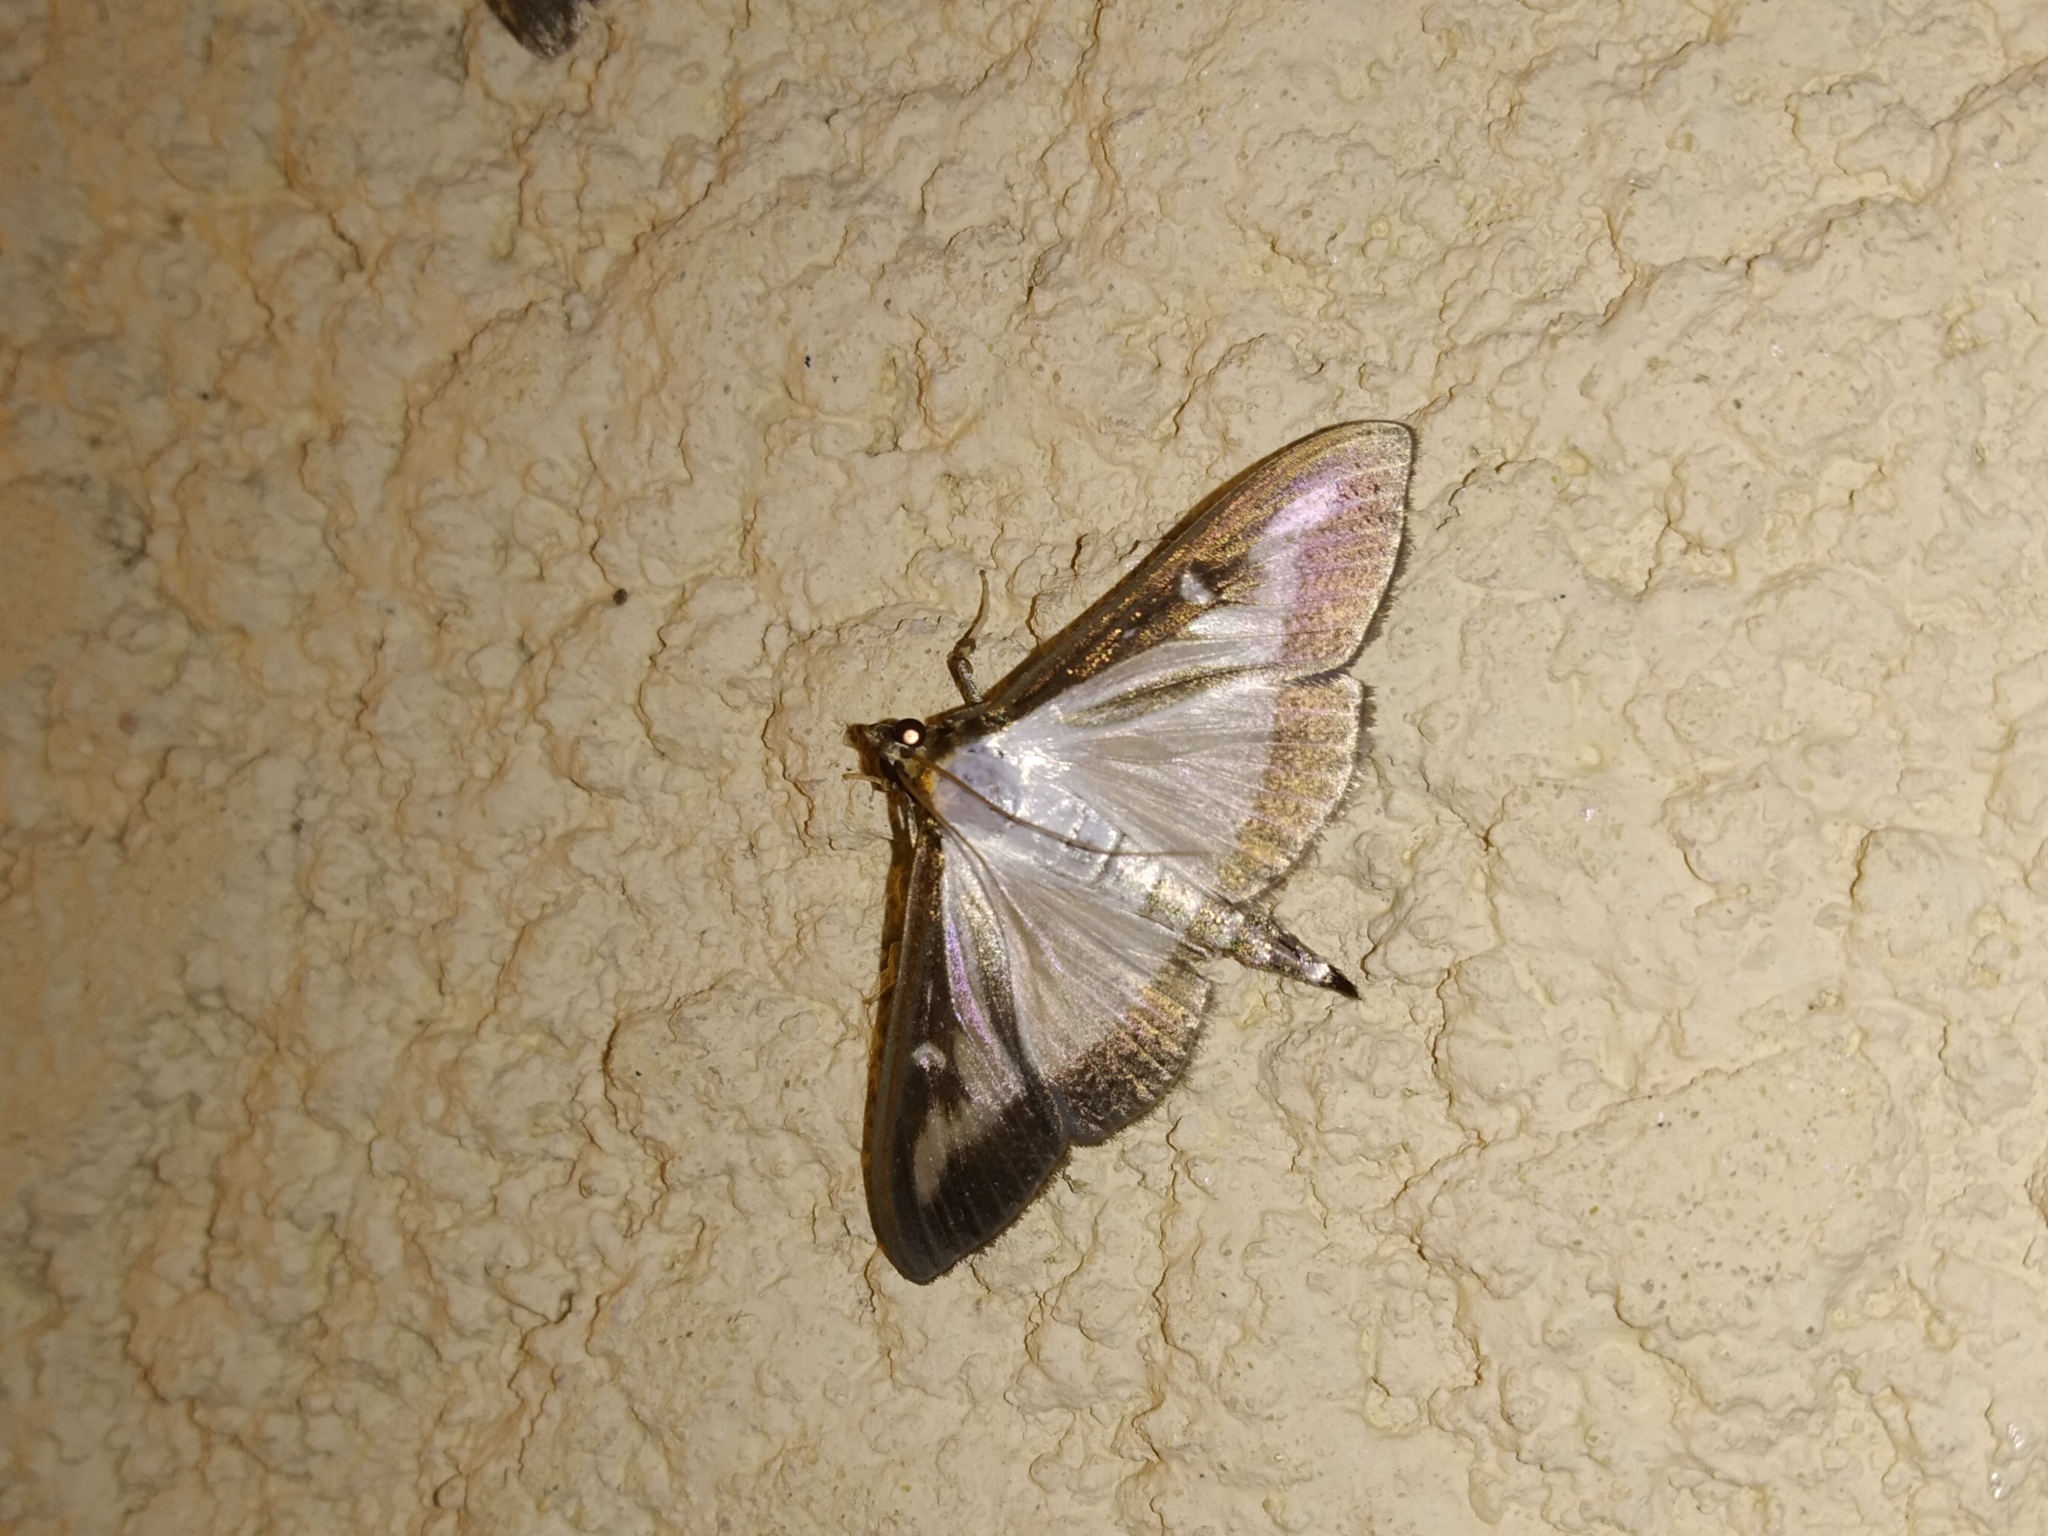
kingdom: Animalia
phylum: Arthropoda
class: Insecta
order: Lepidoptera
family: Crambidae
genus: Cydalima
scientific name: Cydalima perspectalis
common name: Box tree moth
